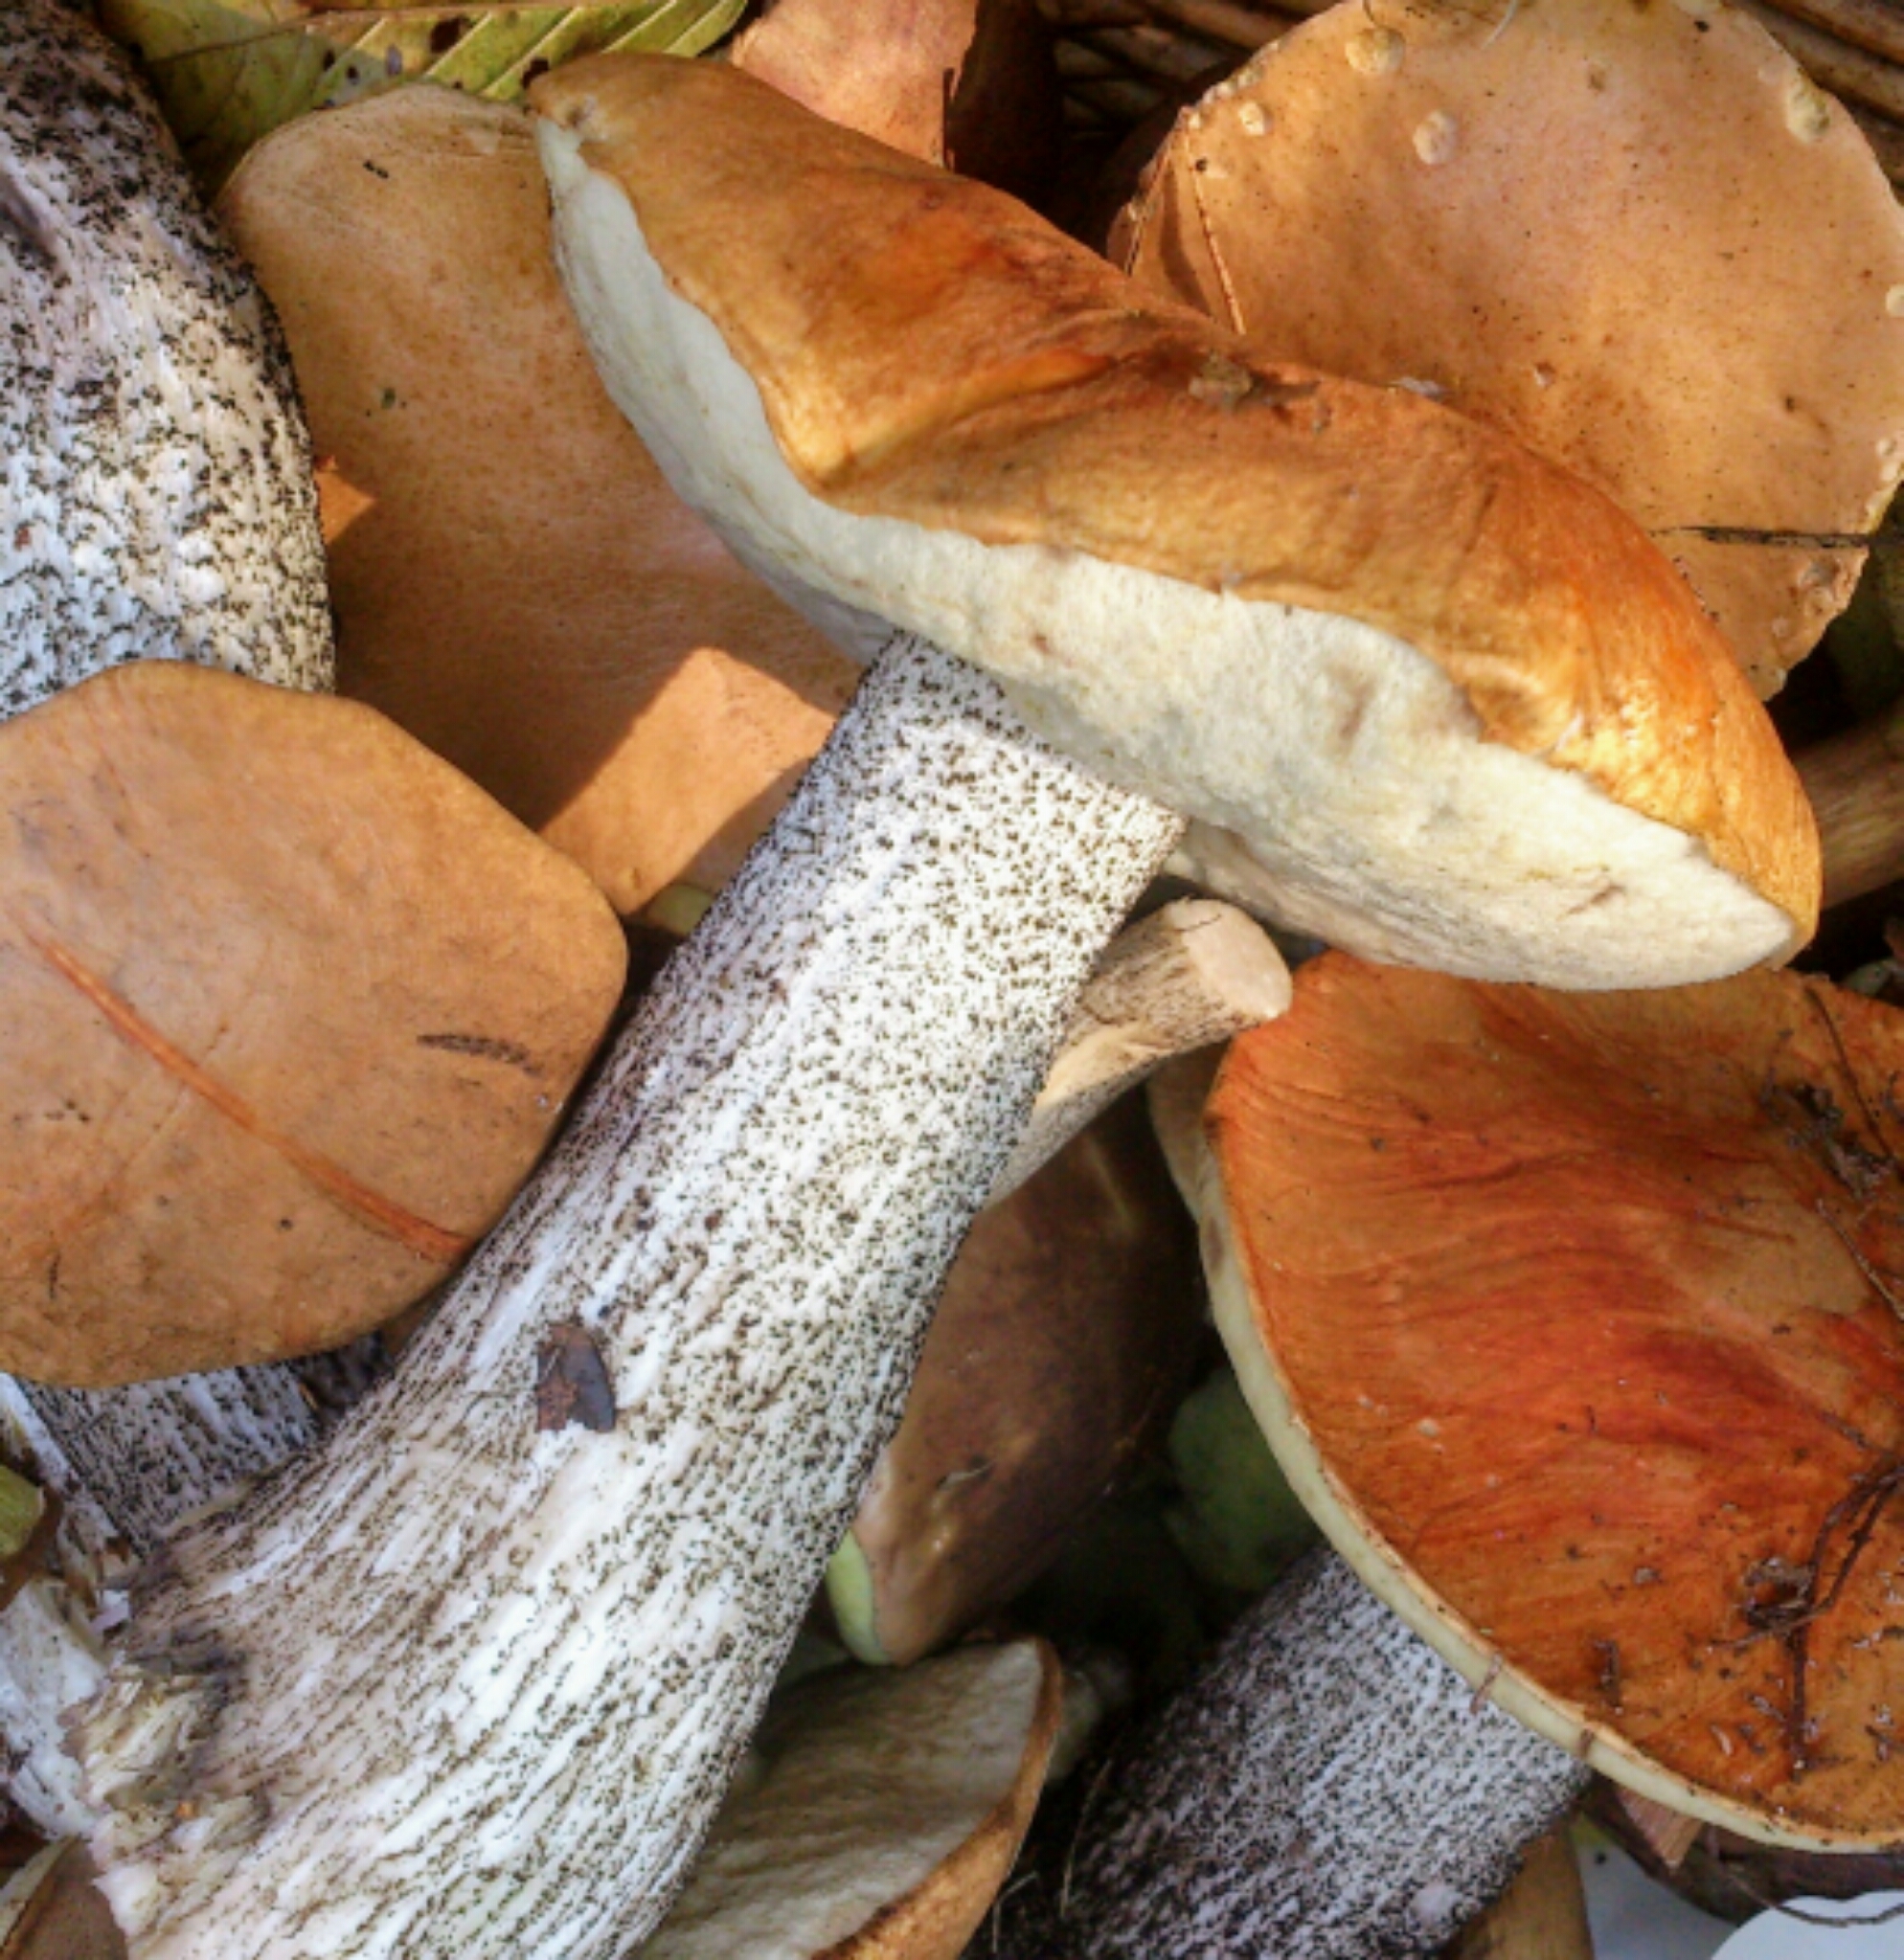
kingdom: Fungi
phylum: Basidiomycota
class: Agaricomycetes
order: Boletales
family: Boletaceae
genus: Leccinum
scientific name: Leccinum aurantiacum
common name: Orange bolete
